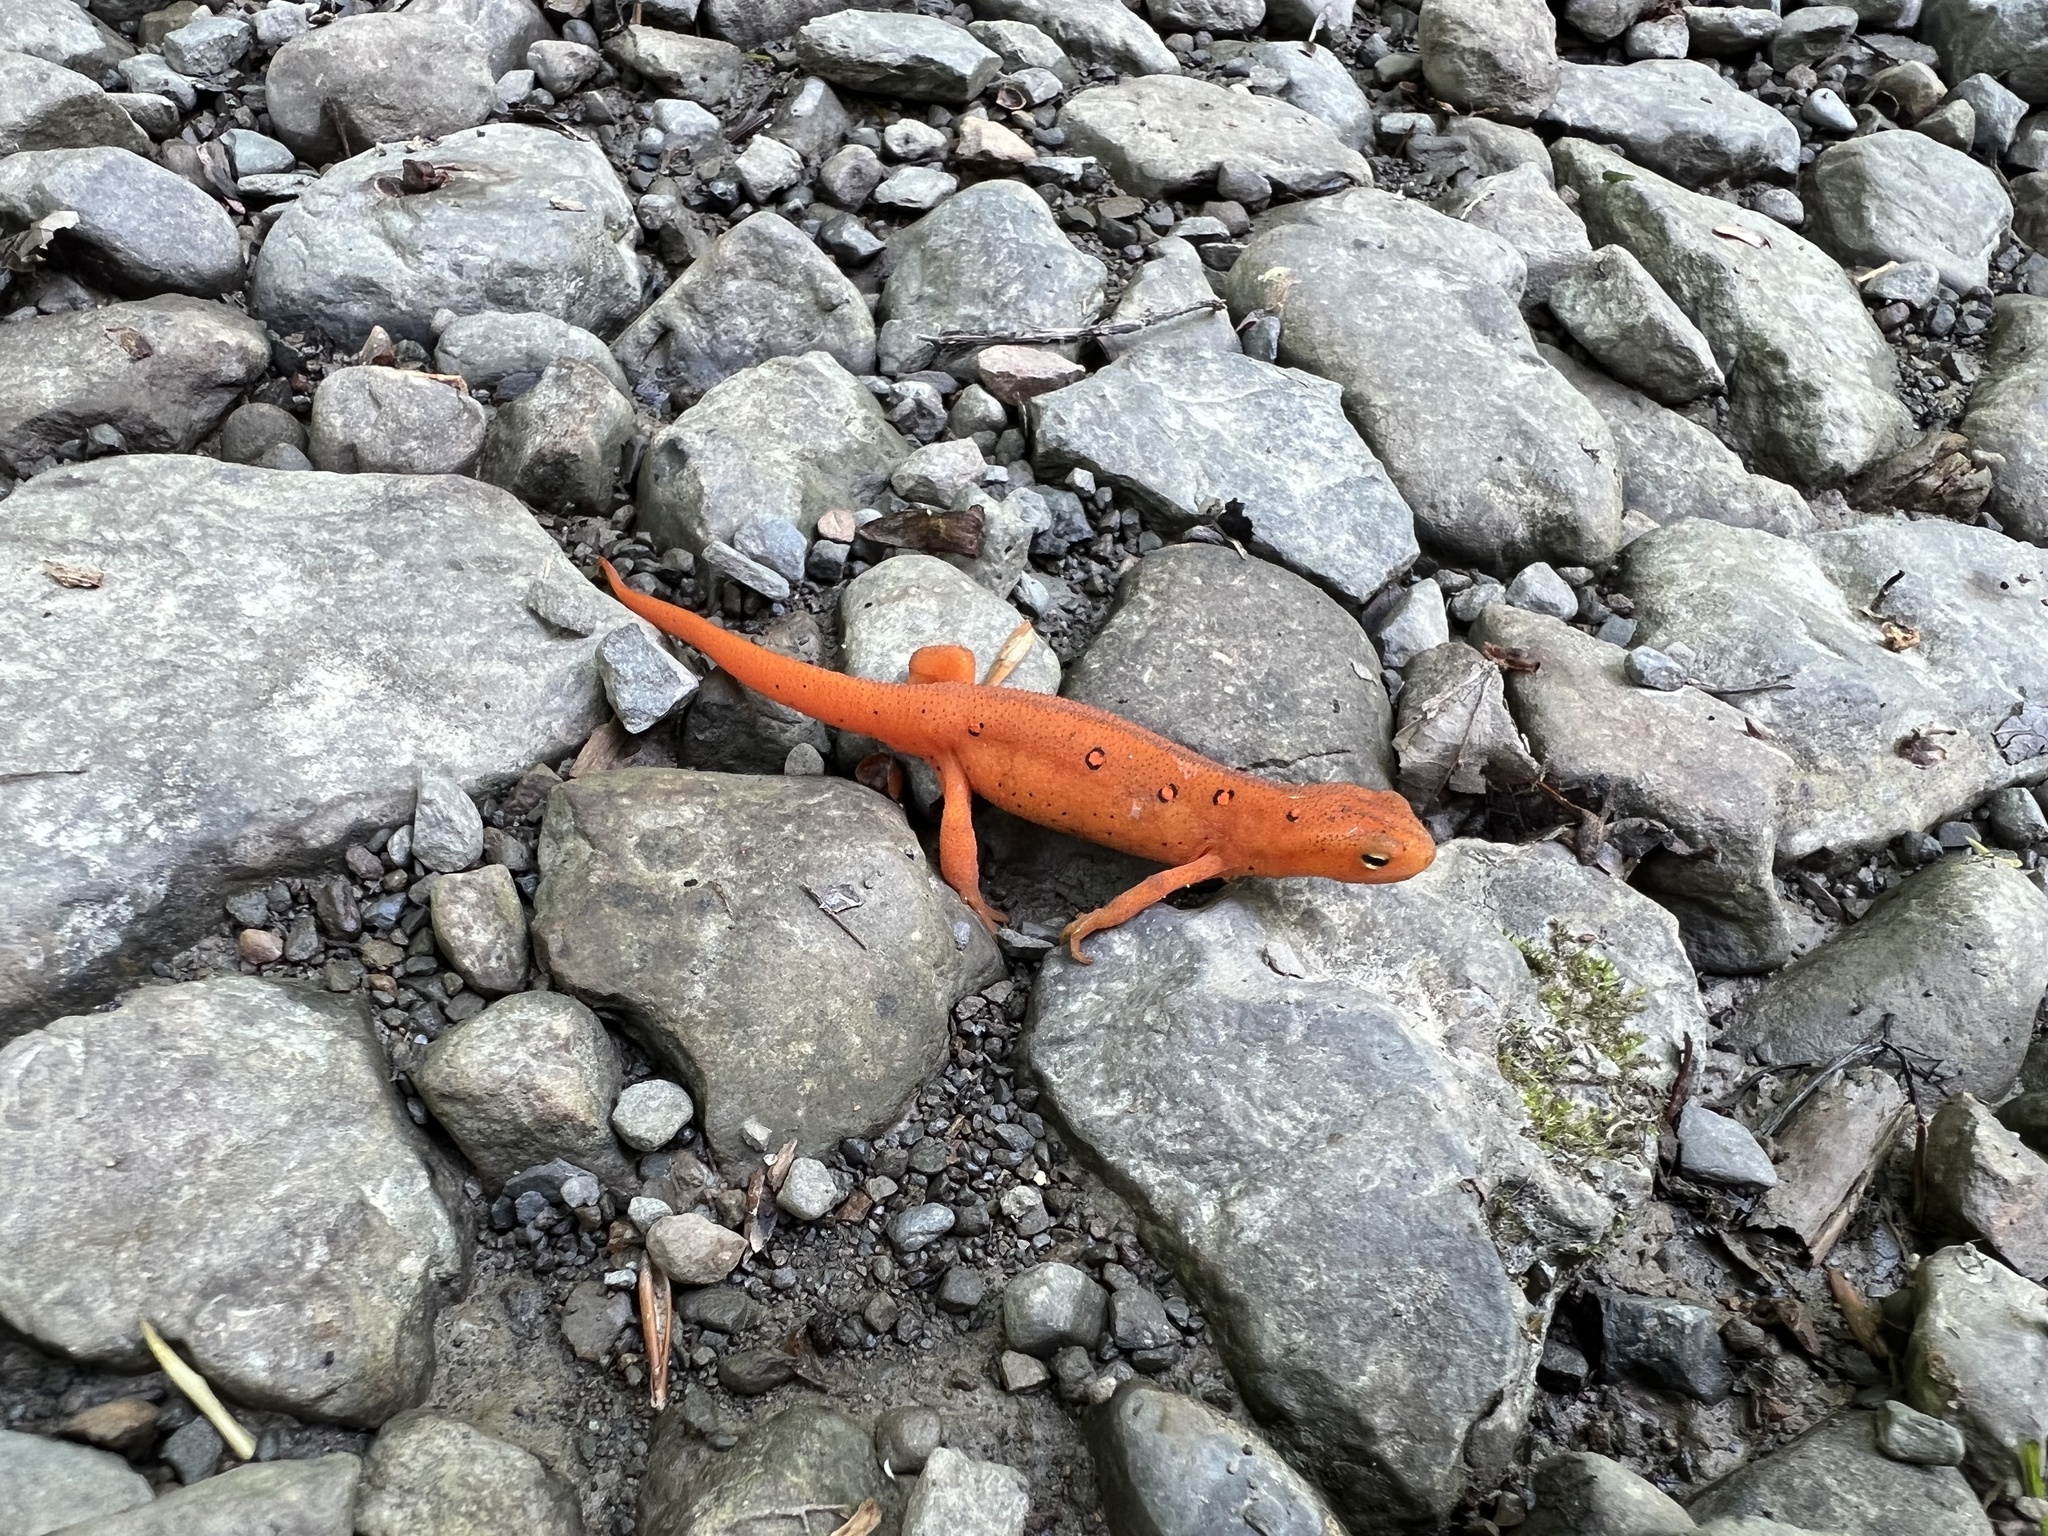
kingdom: Animalia
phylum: Chordata
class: Amphibia
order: Caudata
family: Salamandridae
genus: Notophthalmus
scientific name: Notophthalmus viridescens
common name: Eastern newt
